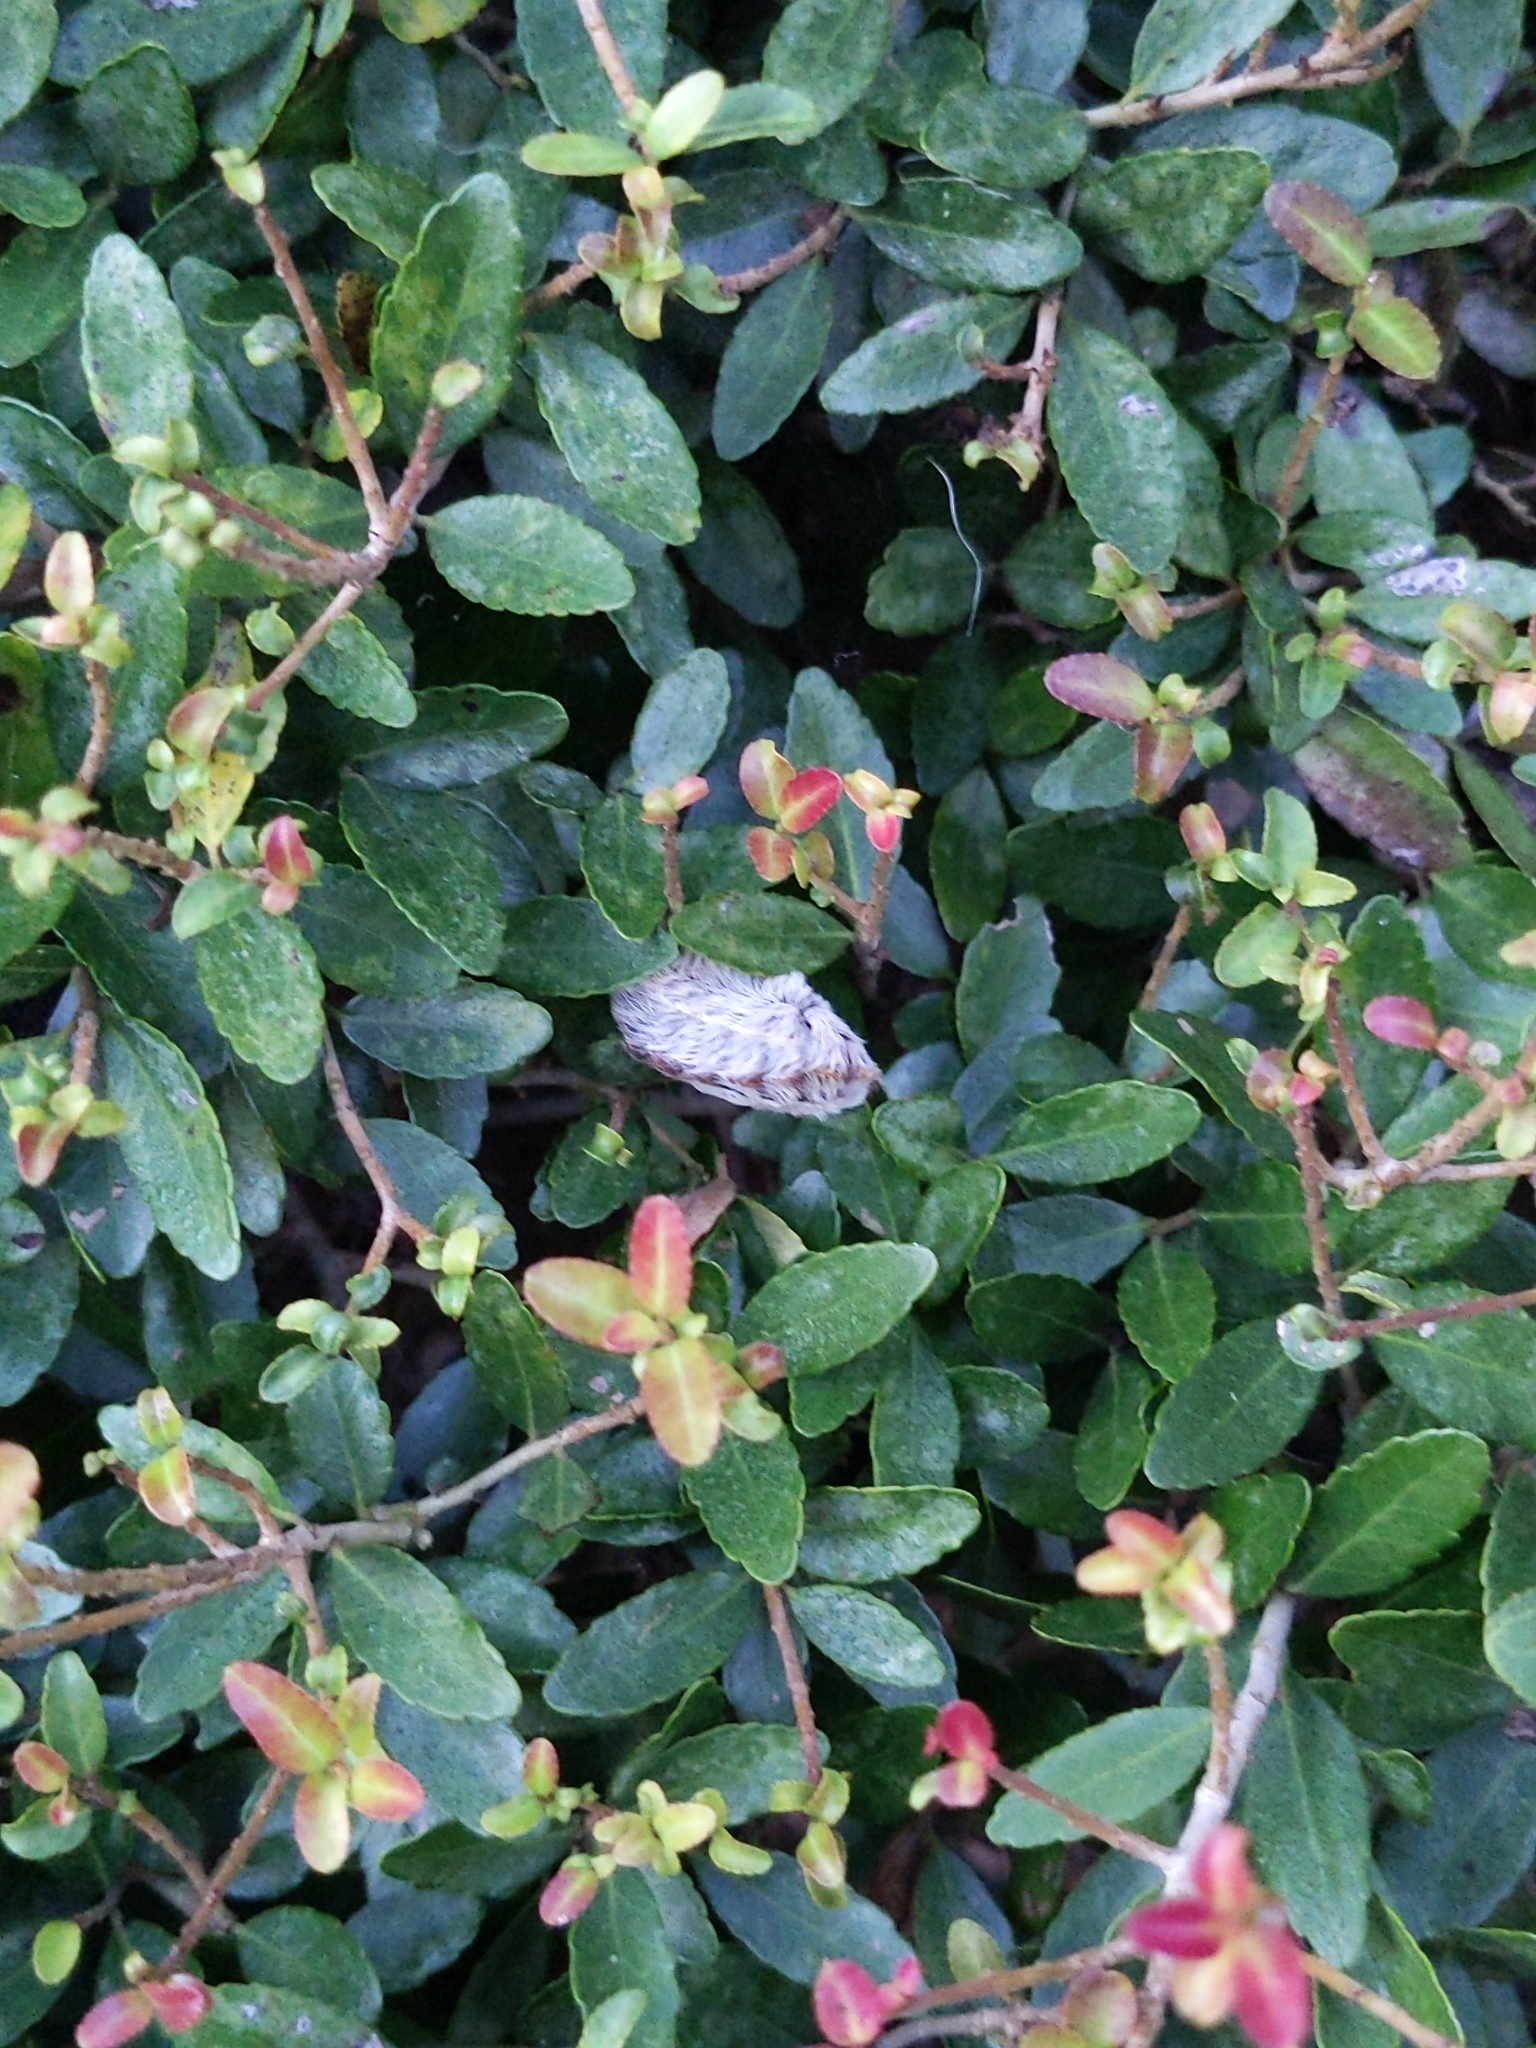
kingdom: Animalia
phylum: Arthropoda
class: Insecta
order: Lepidoptera
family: Megalopygidae
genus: Megalopyge
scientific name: Megalopyge opercularis
